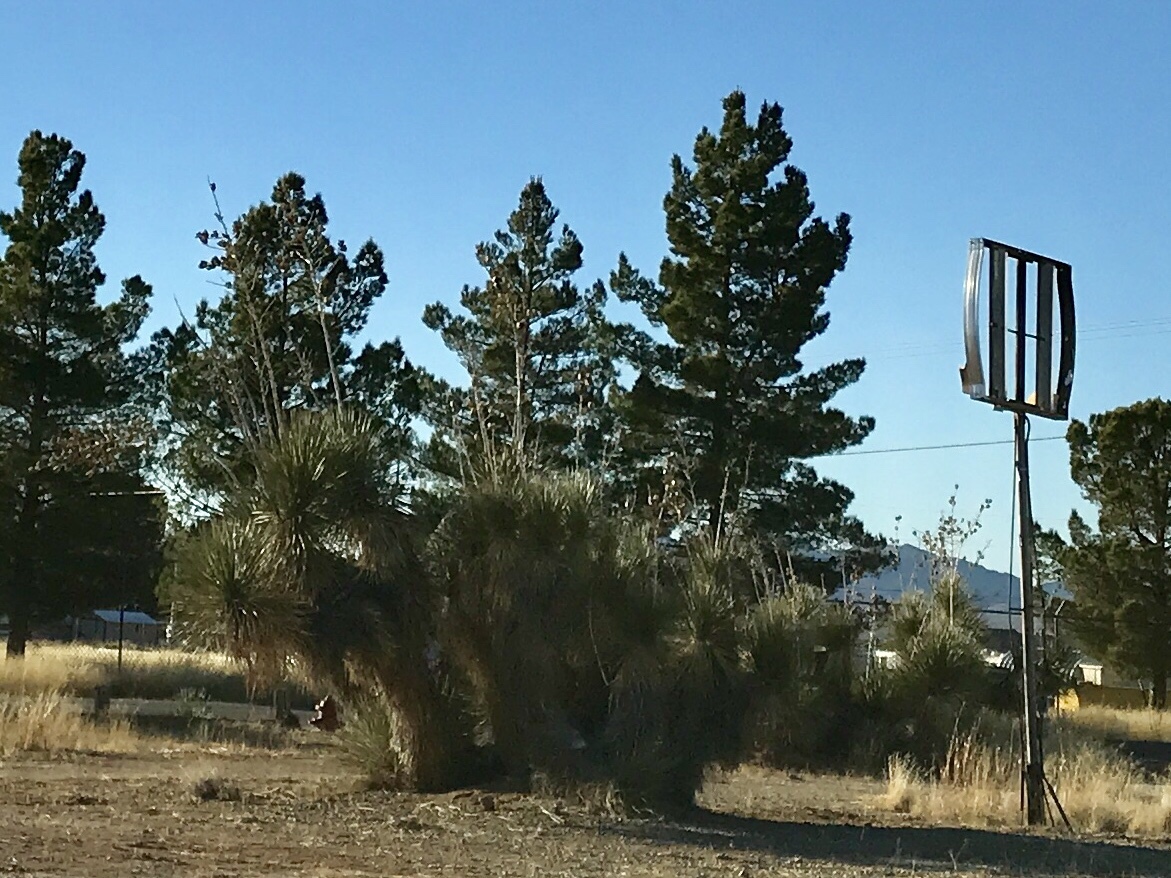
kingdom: Plantae
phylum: Tracheophyta
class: Liliopsida
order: Asparagales
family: Asparagaceae
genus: Yucca
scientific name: Yucca elata
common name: Palmella
